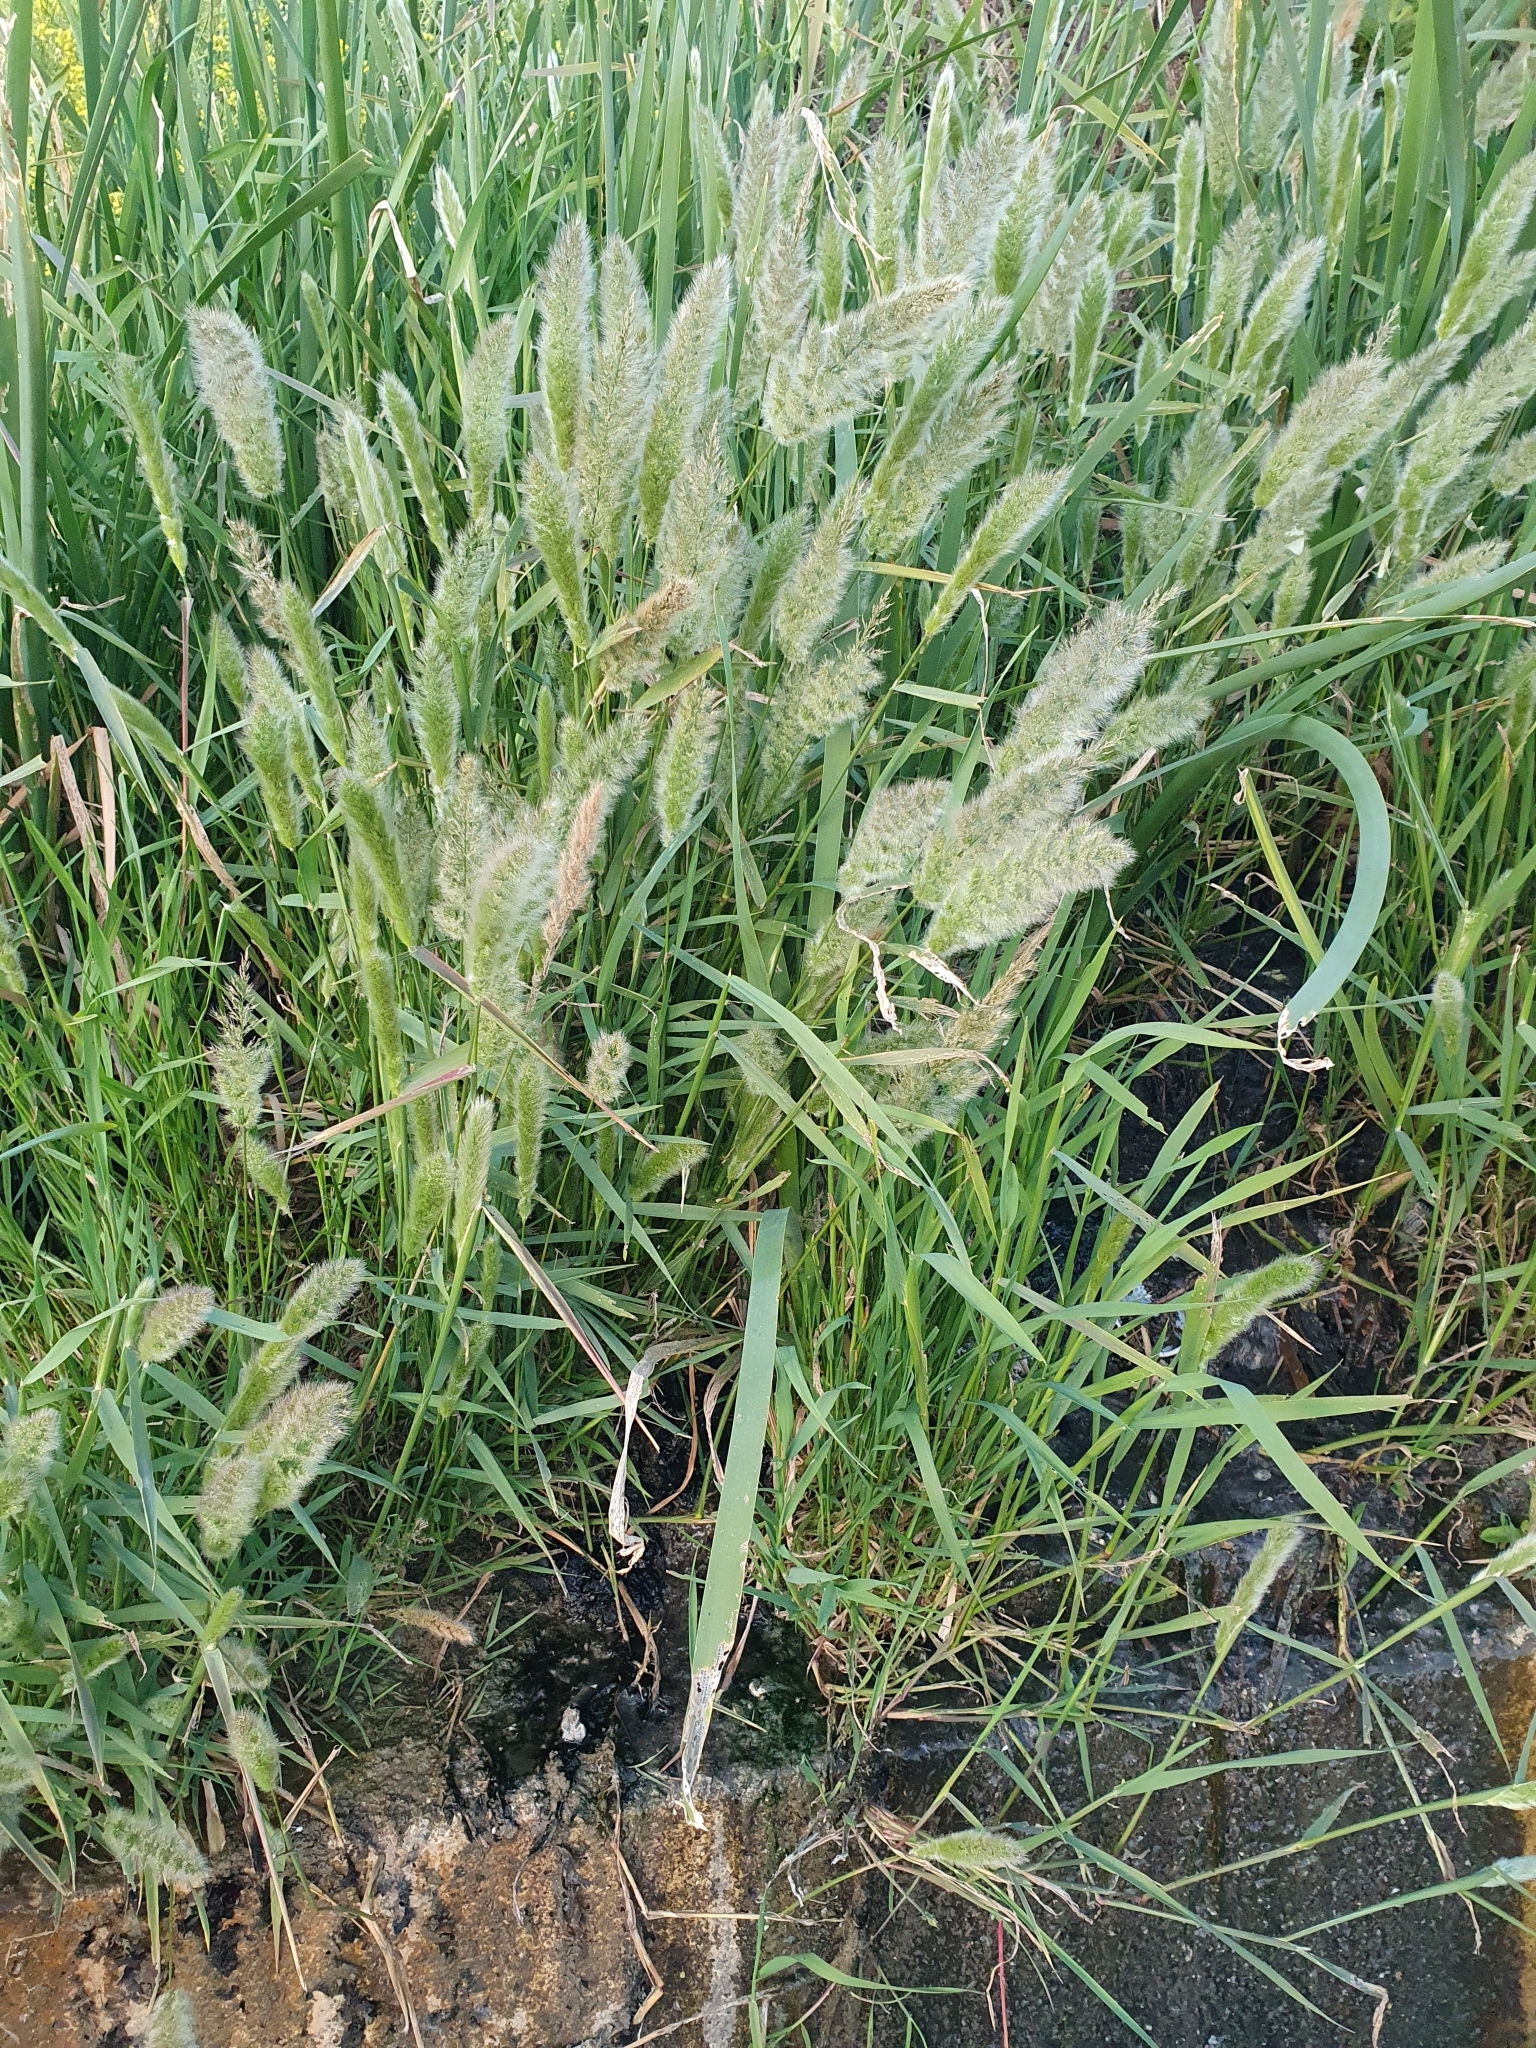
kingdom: Plantae
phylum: Tracheophyta
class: Liliopsida
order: Poales
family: Poaceae
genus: Polypogon
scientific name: Polypogon monspeliensis
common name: Annual rabbitsfoot grass
